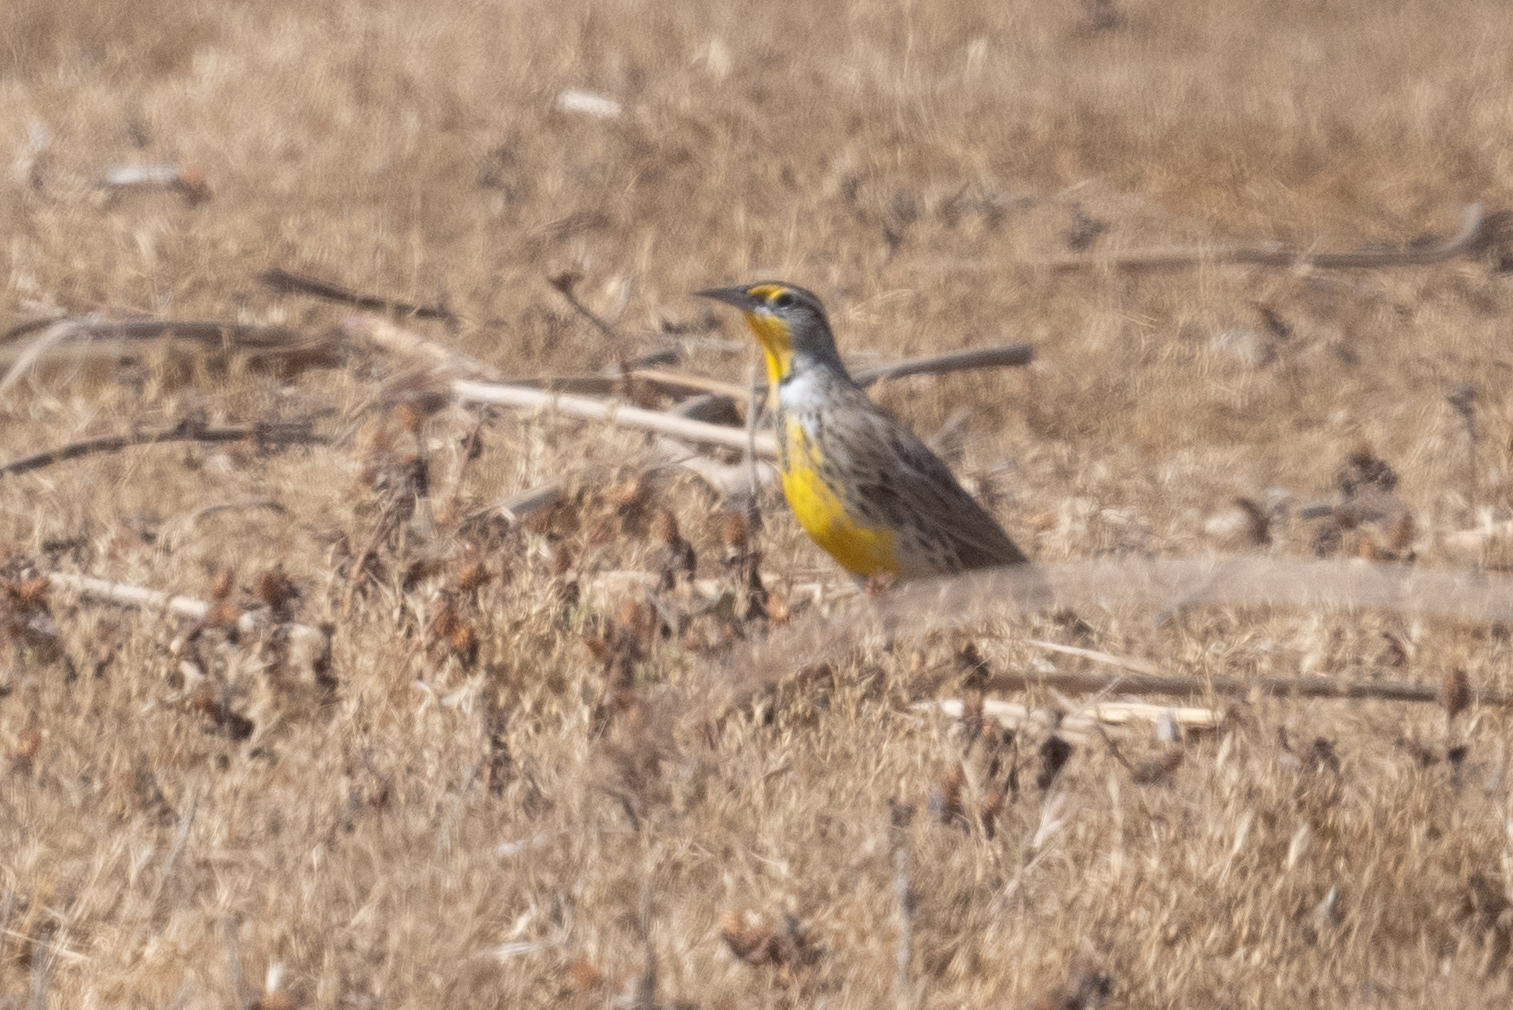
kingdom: Animalia
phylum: Chordata
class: Aves
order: Passeriformes
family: Icteridae
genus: Sturnella
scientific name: Sturnella neglecta
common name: Western meadowlark
